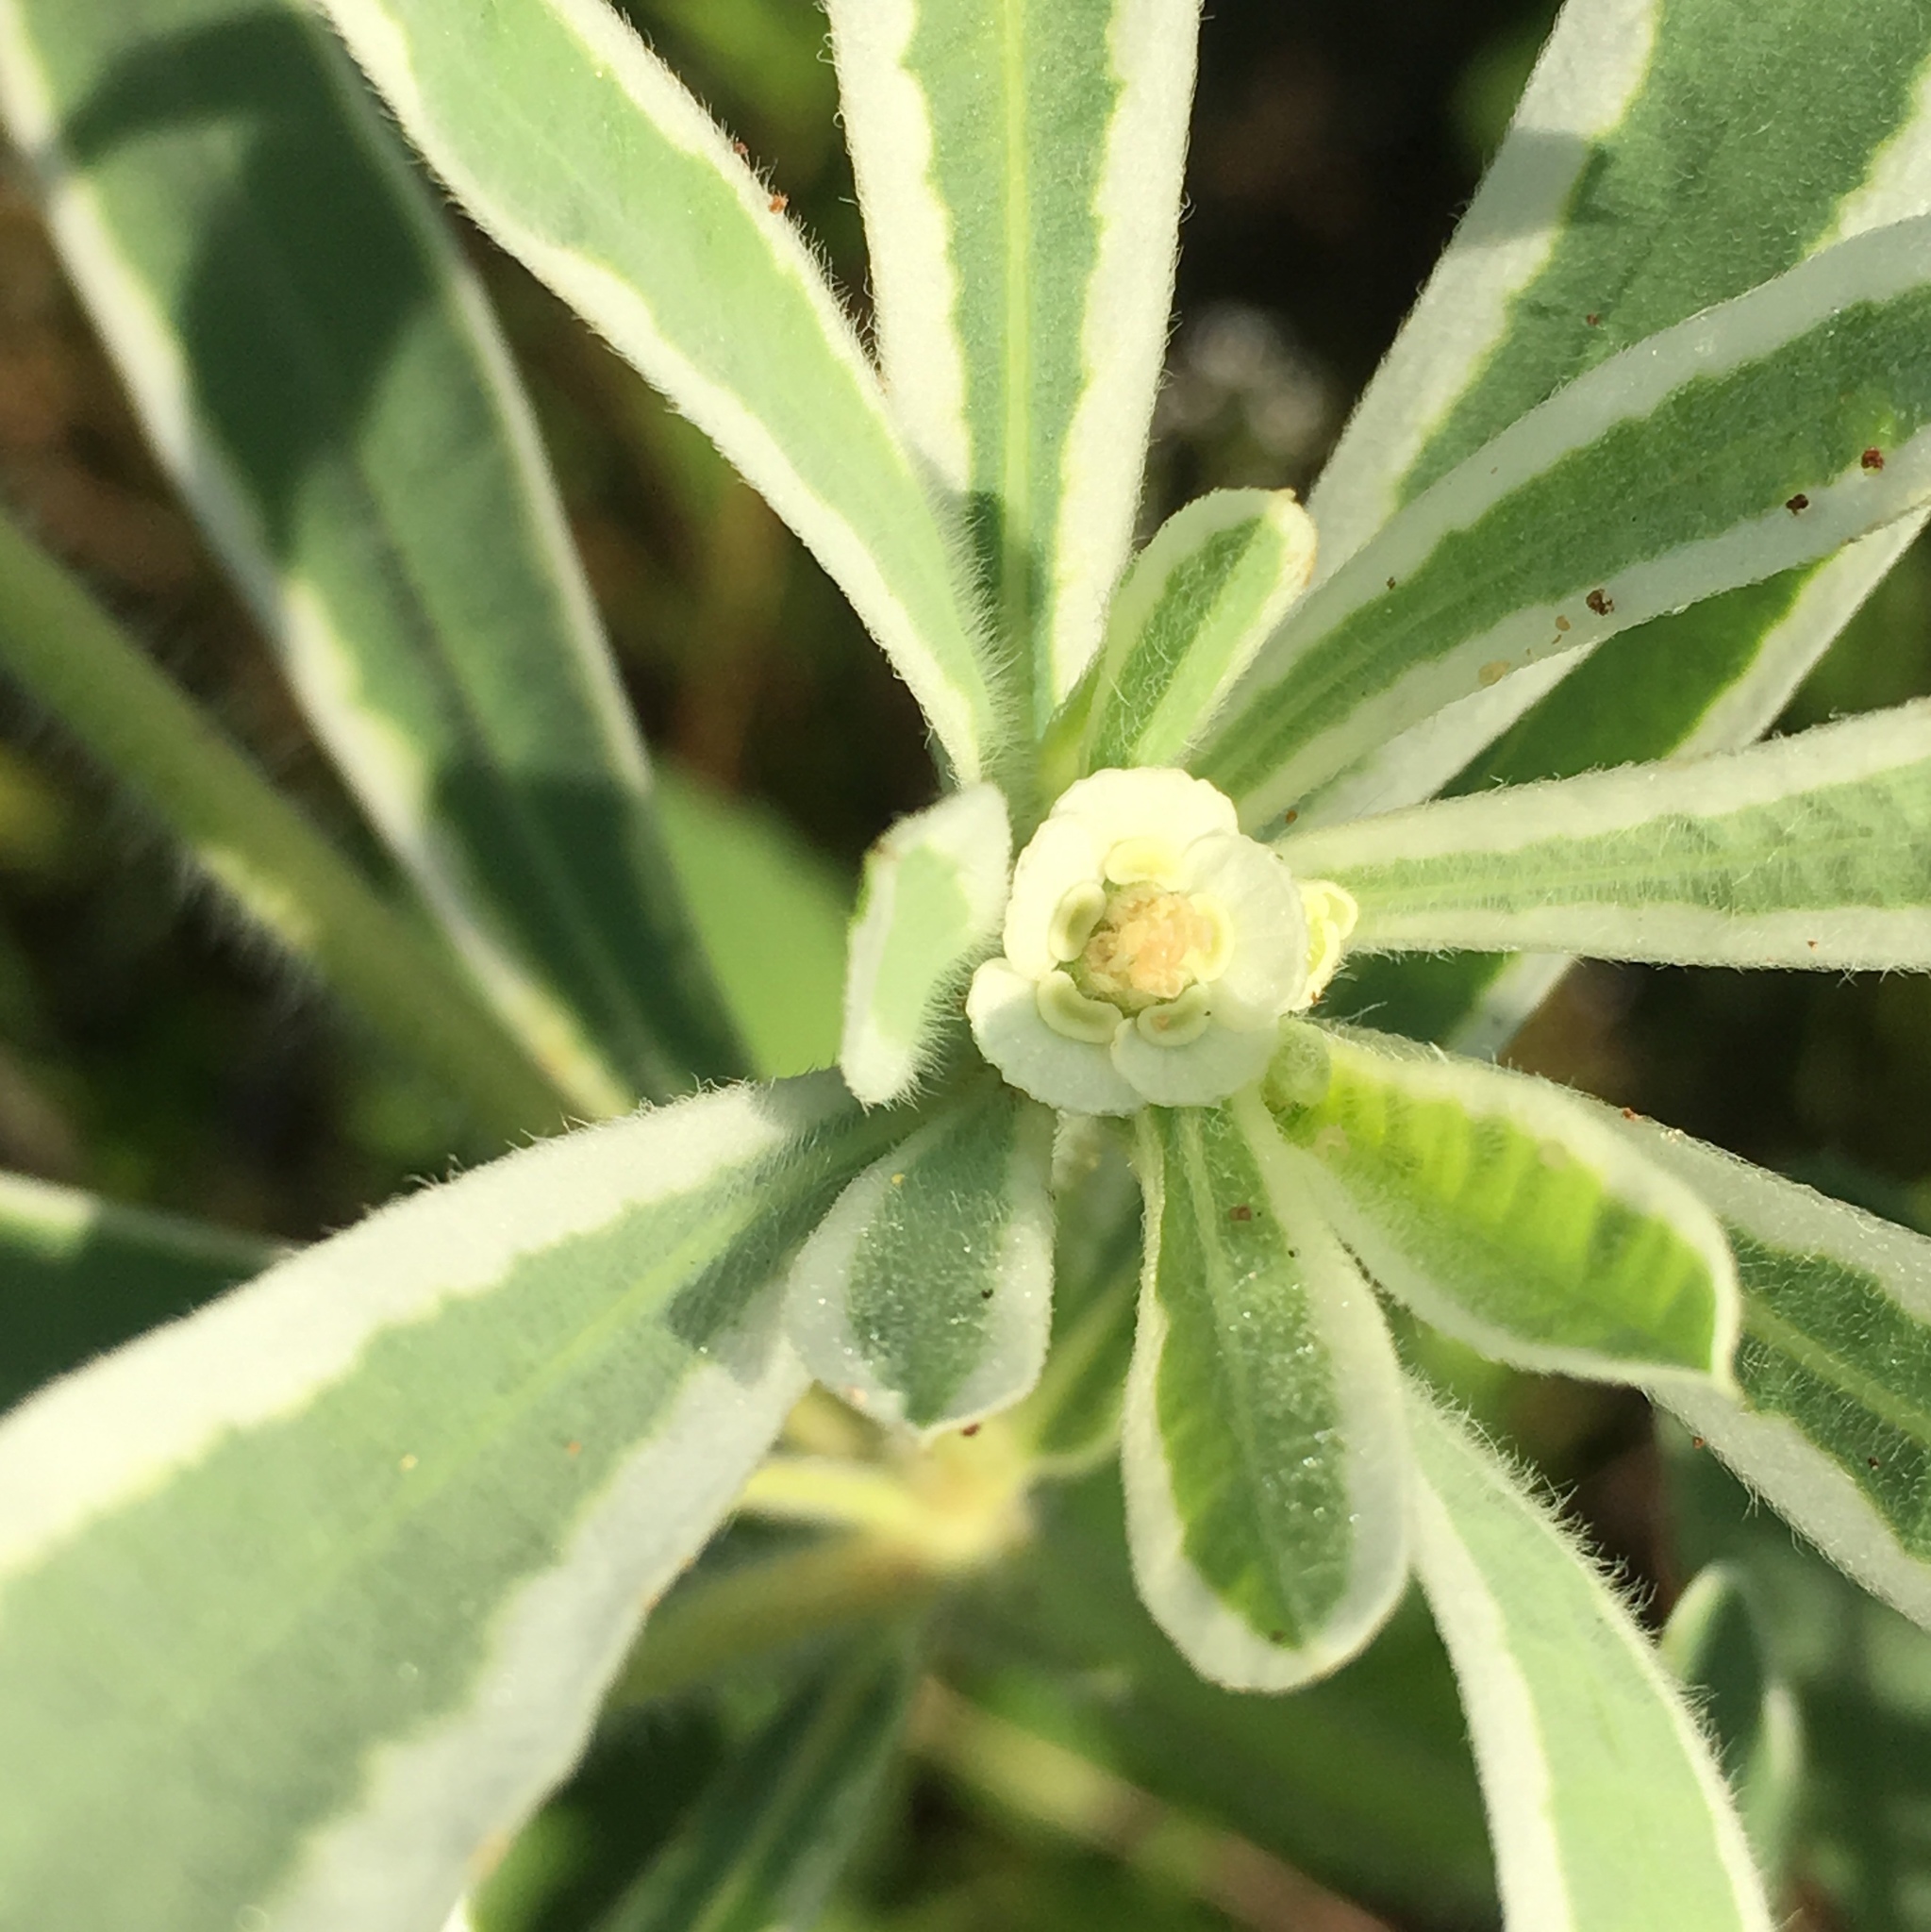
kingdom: Plantae
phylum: Tracheophyta
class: Magnoliopsida
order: Malpighiales
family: Euphorbiaceae
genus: Euphorbia
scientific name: Euphorbia bicolor
